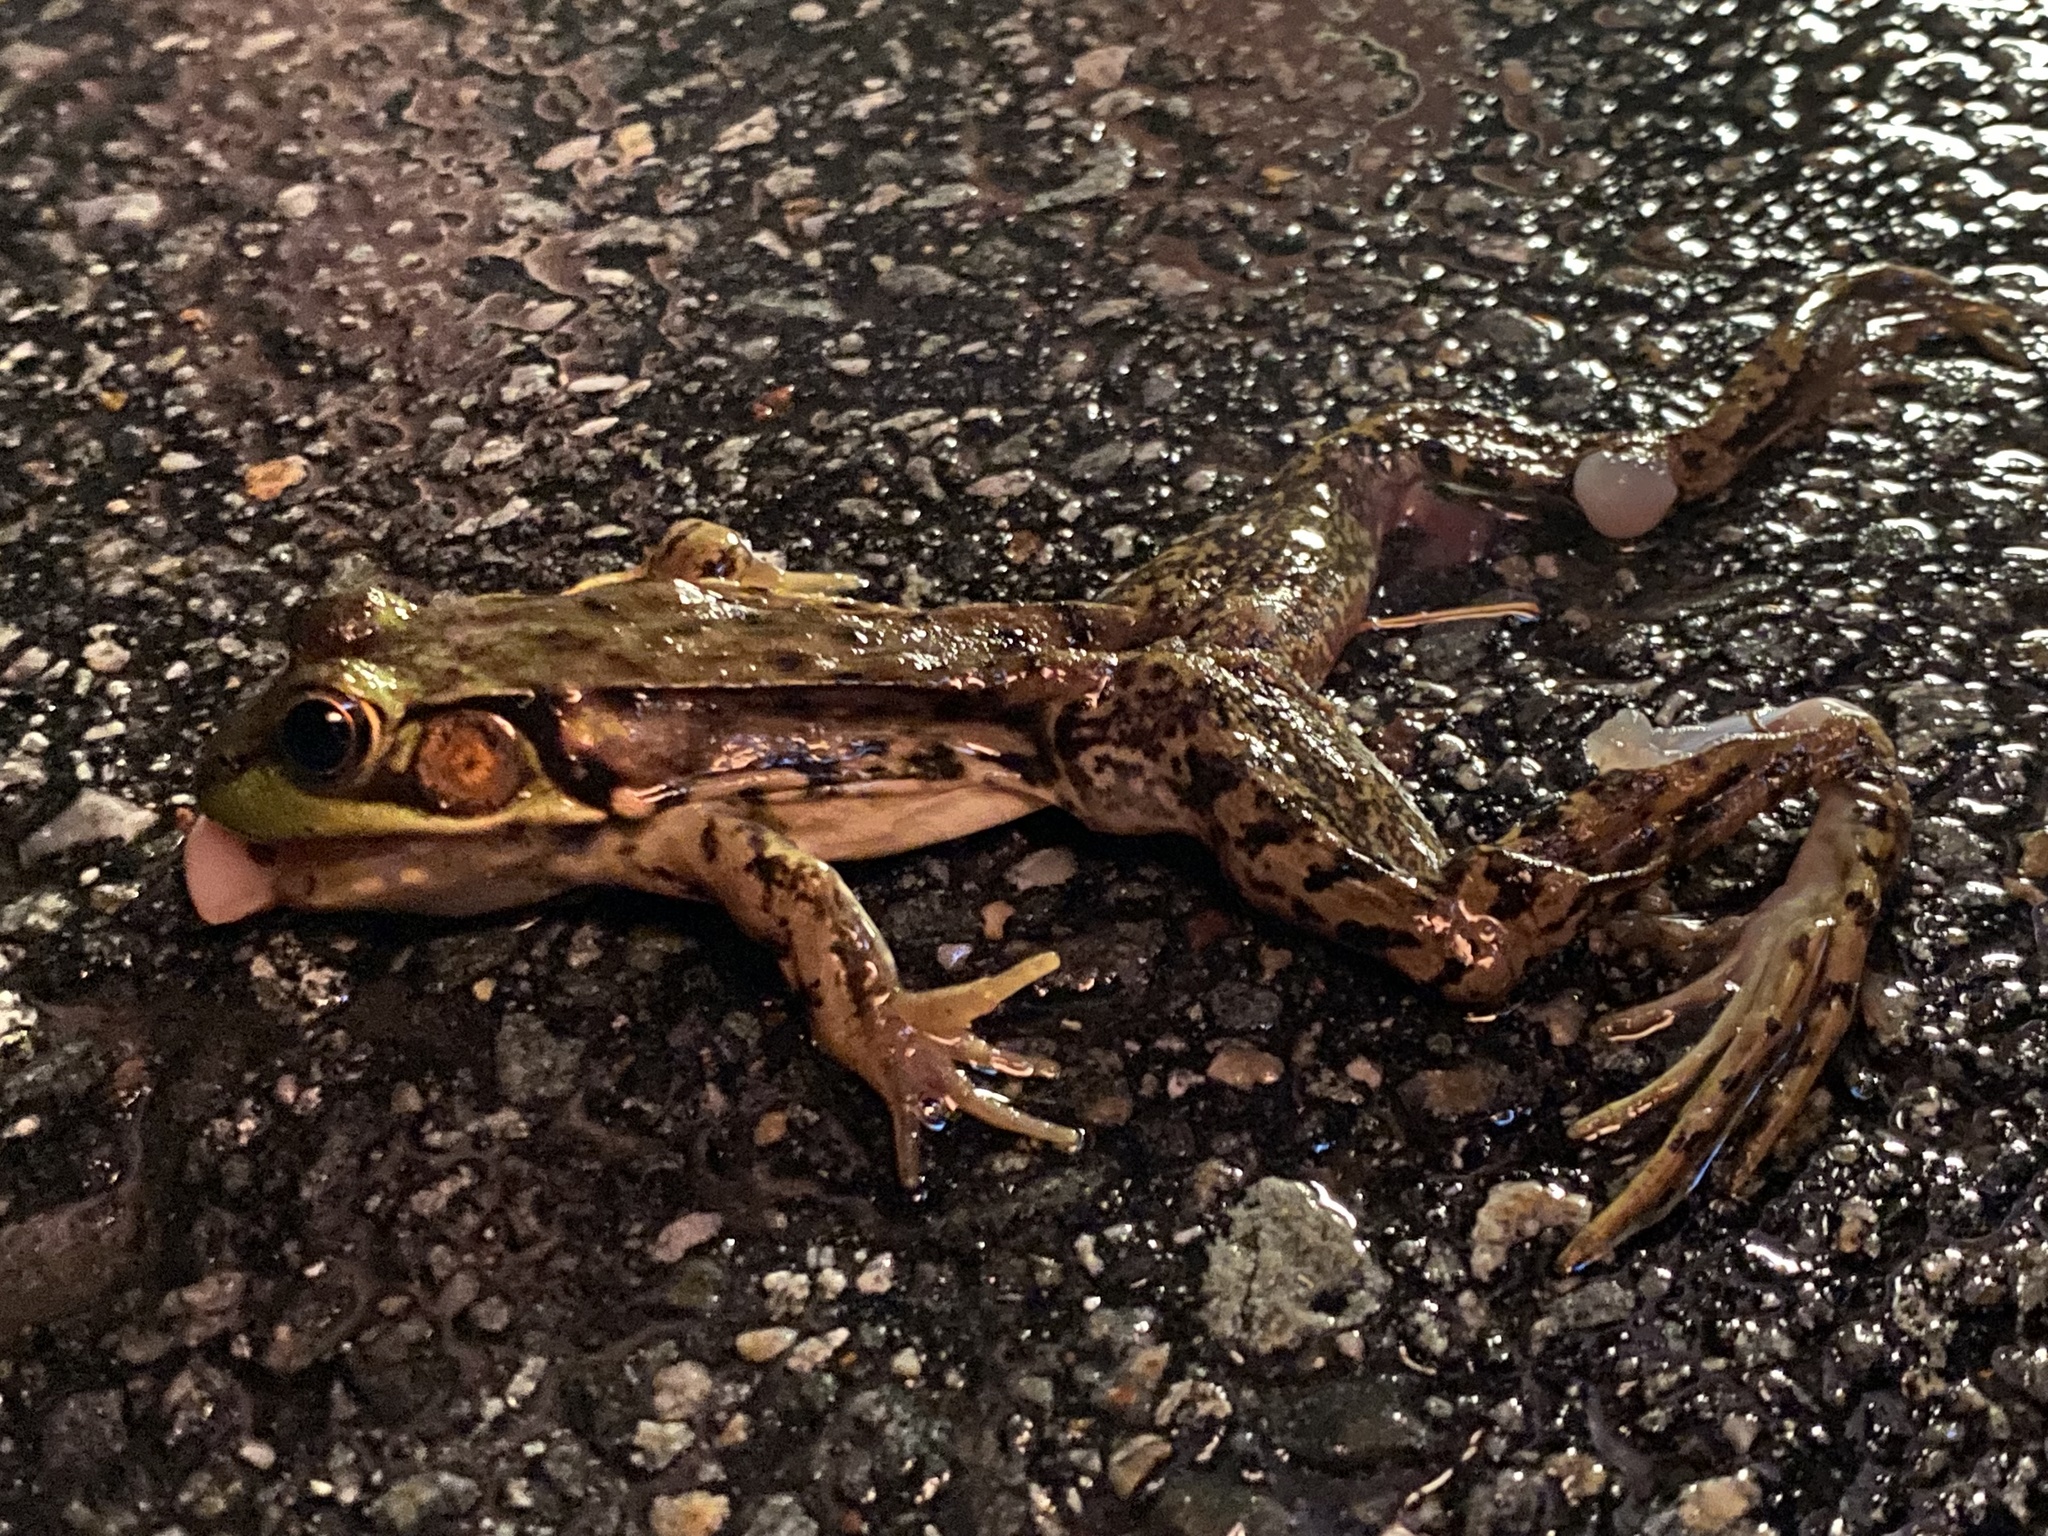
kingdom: Animalia
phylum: Chordata
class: Amphibia
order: Anura
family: Ranidae
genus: Lithobates
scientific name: Lithobates clamitans
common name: Green frog
